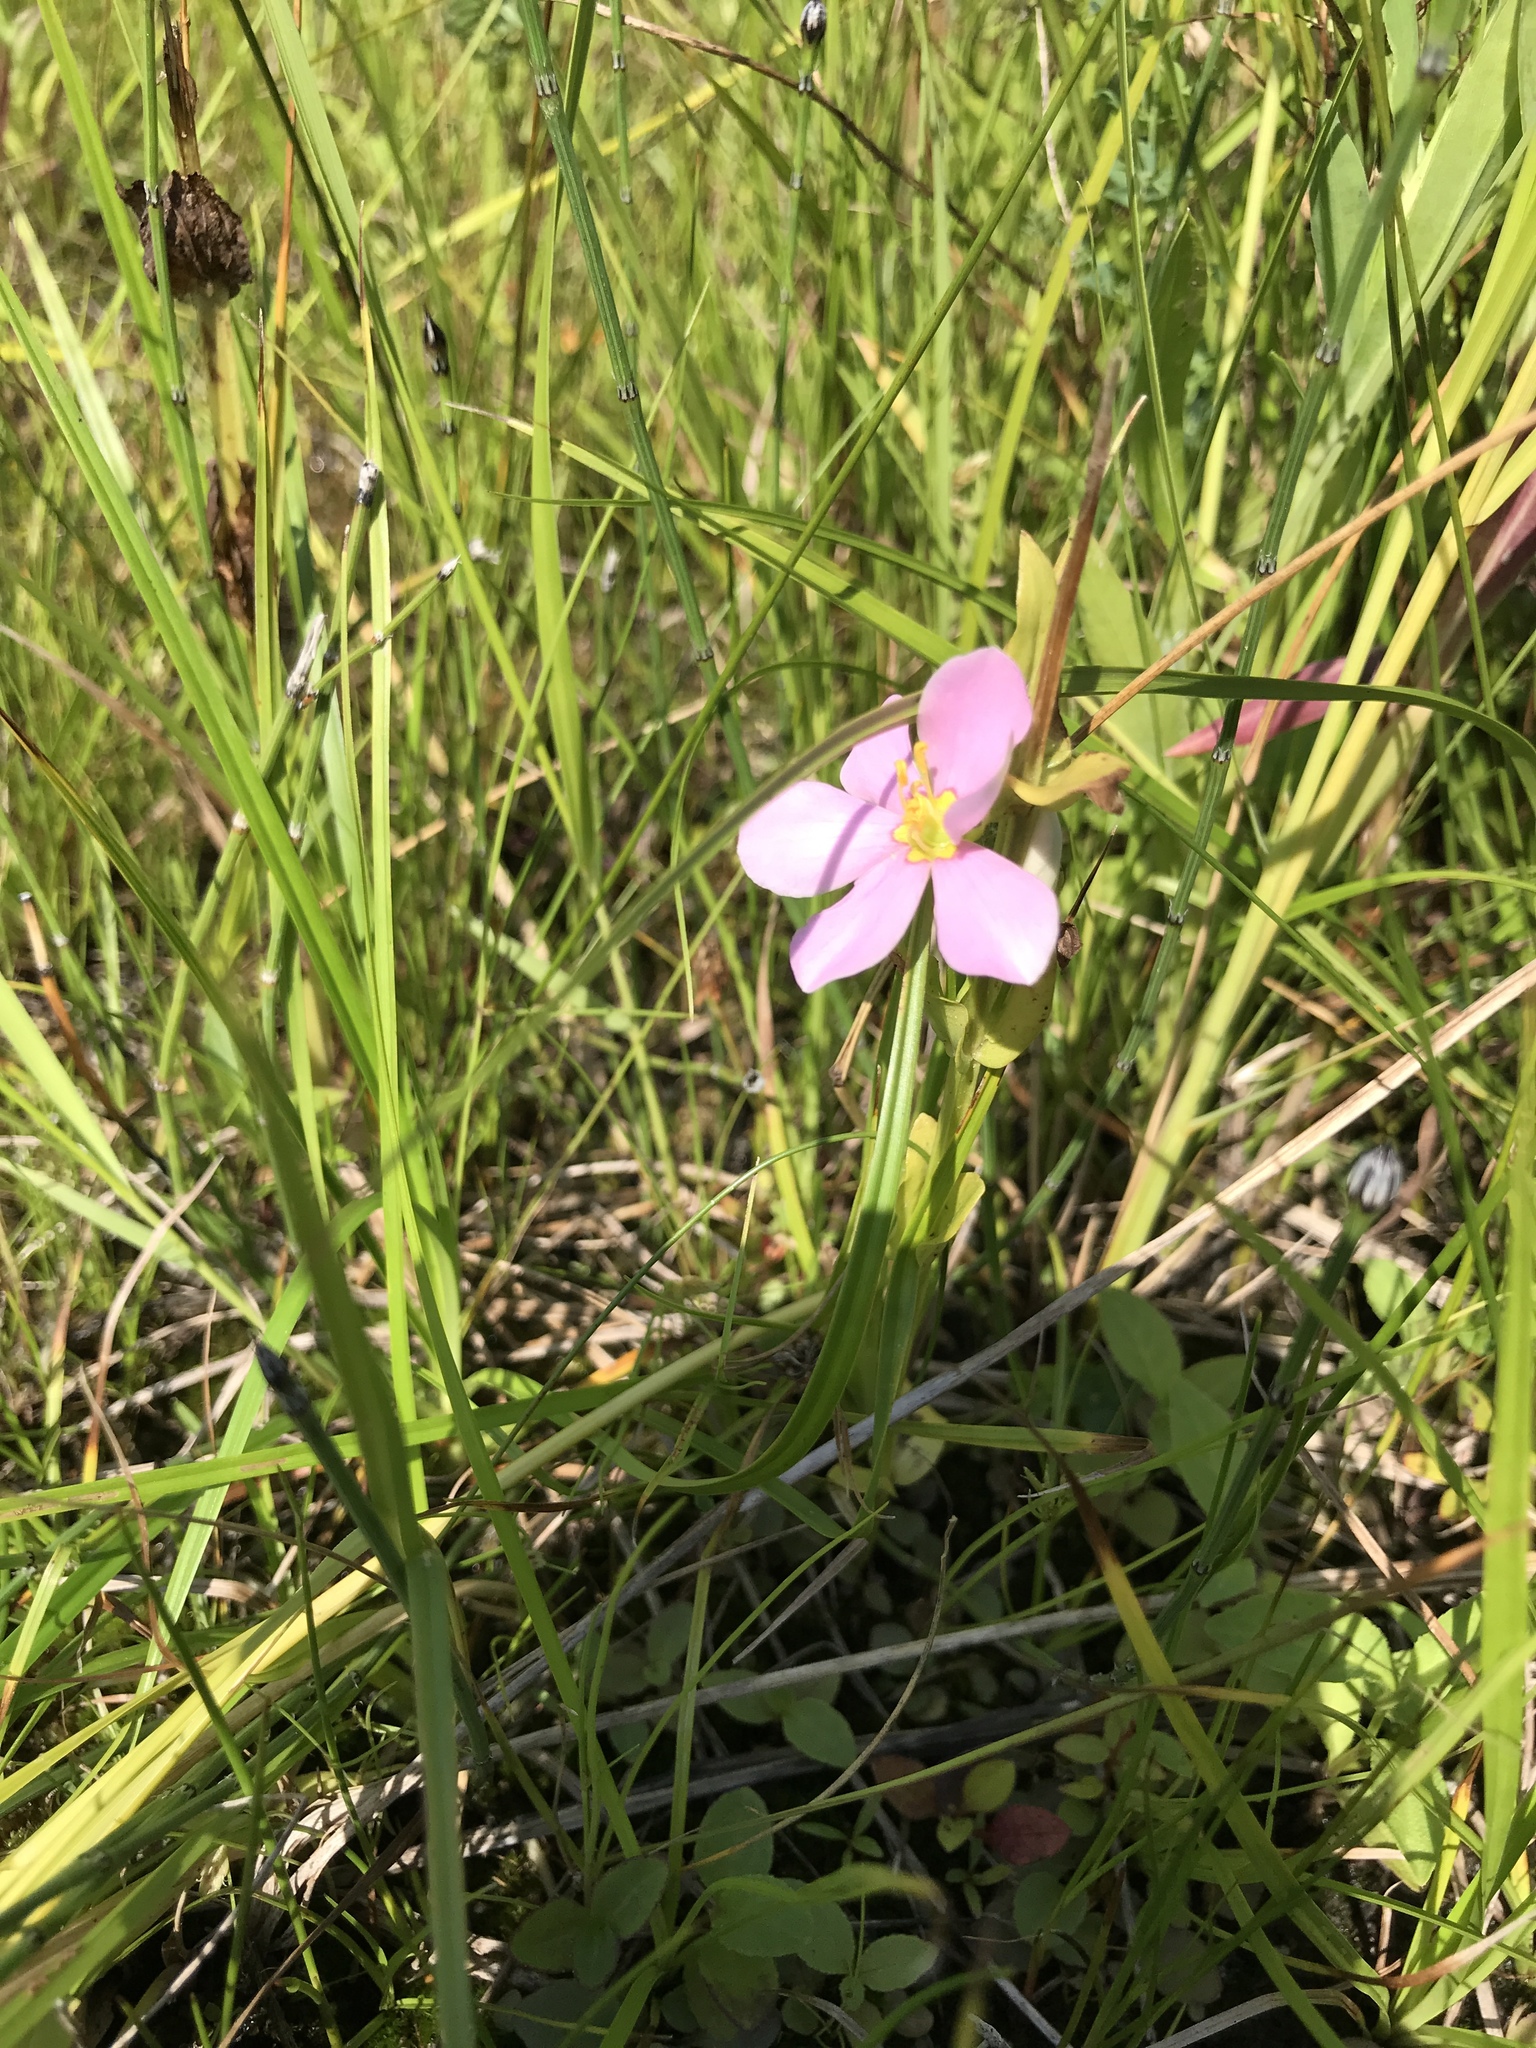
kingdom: Plantae
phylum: Tracheophyta
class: Magnoliopsida
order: Gentianales
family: Gentianaceae
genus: Sabatia
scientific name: Sabatia angularis
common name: Rose-pink
